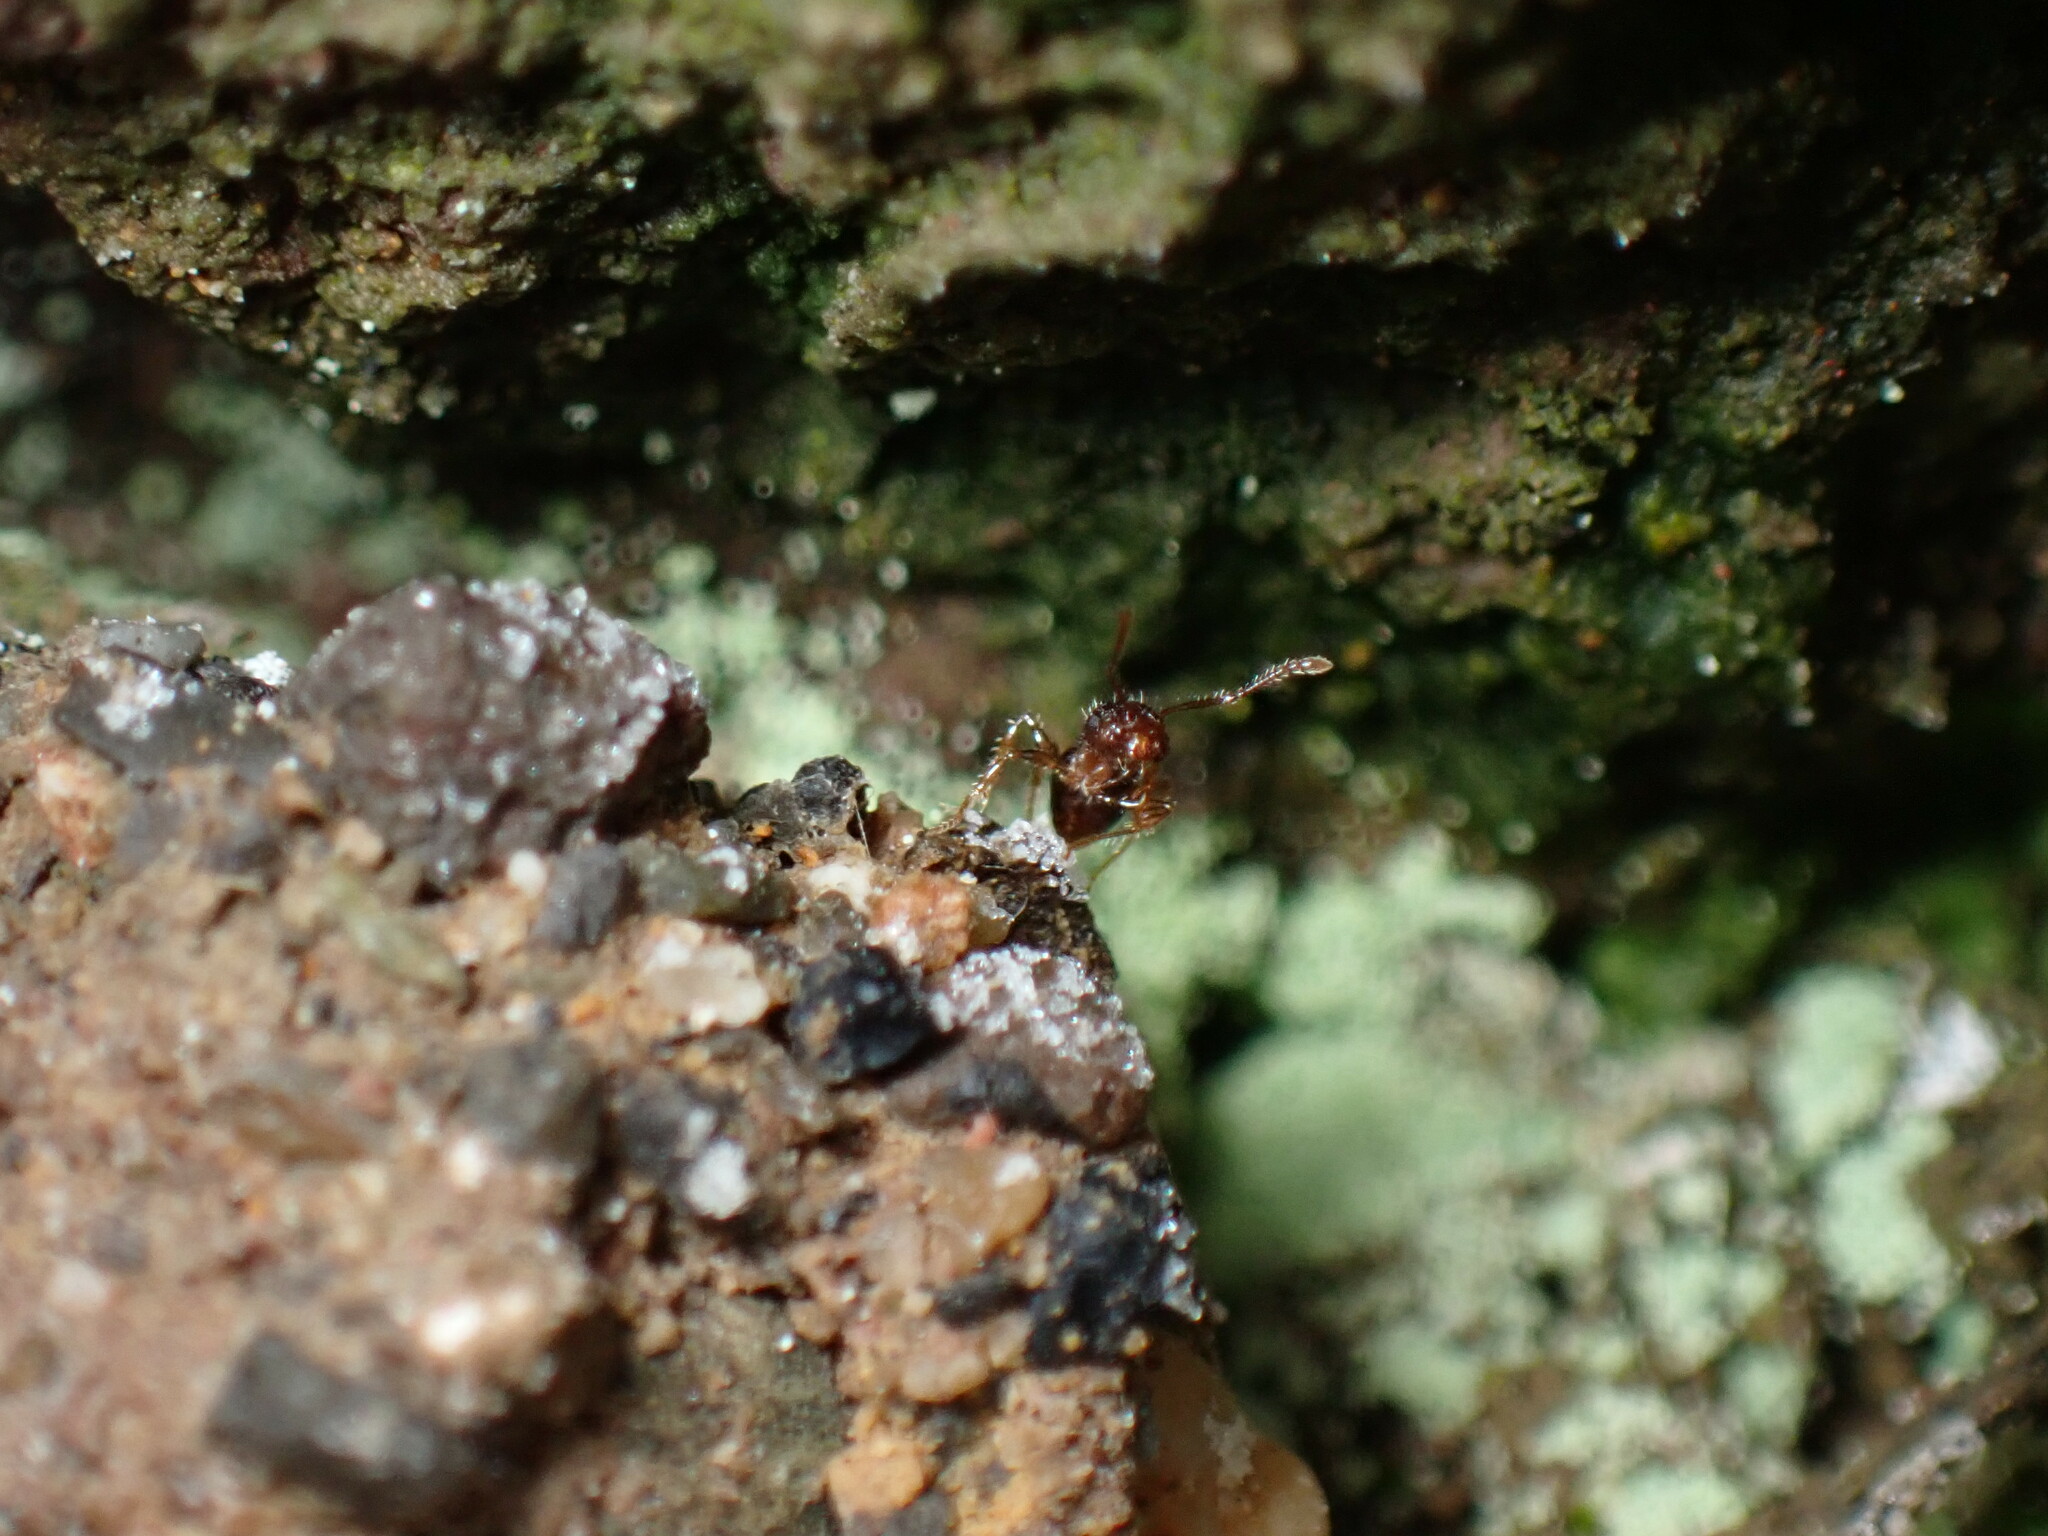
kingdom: Animalia
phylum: Arthropoda
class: Insecta
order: Hymenoptera
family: Formicidae
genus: Pristomyrmex
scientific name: Pristomyrmex punctatus
